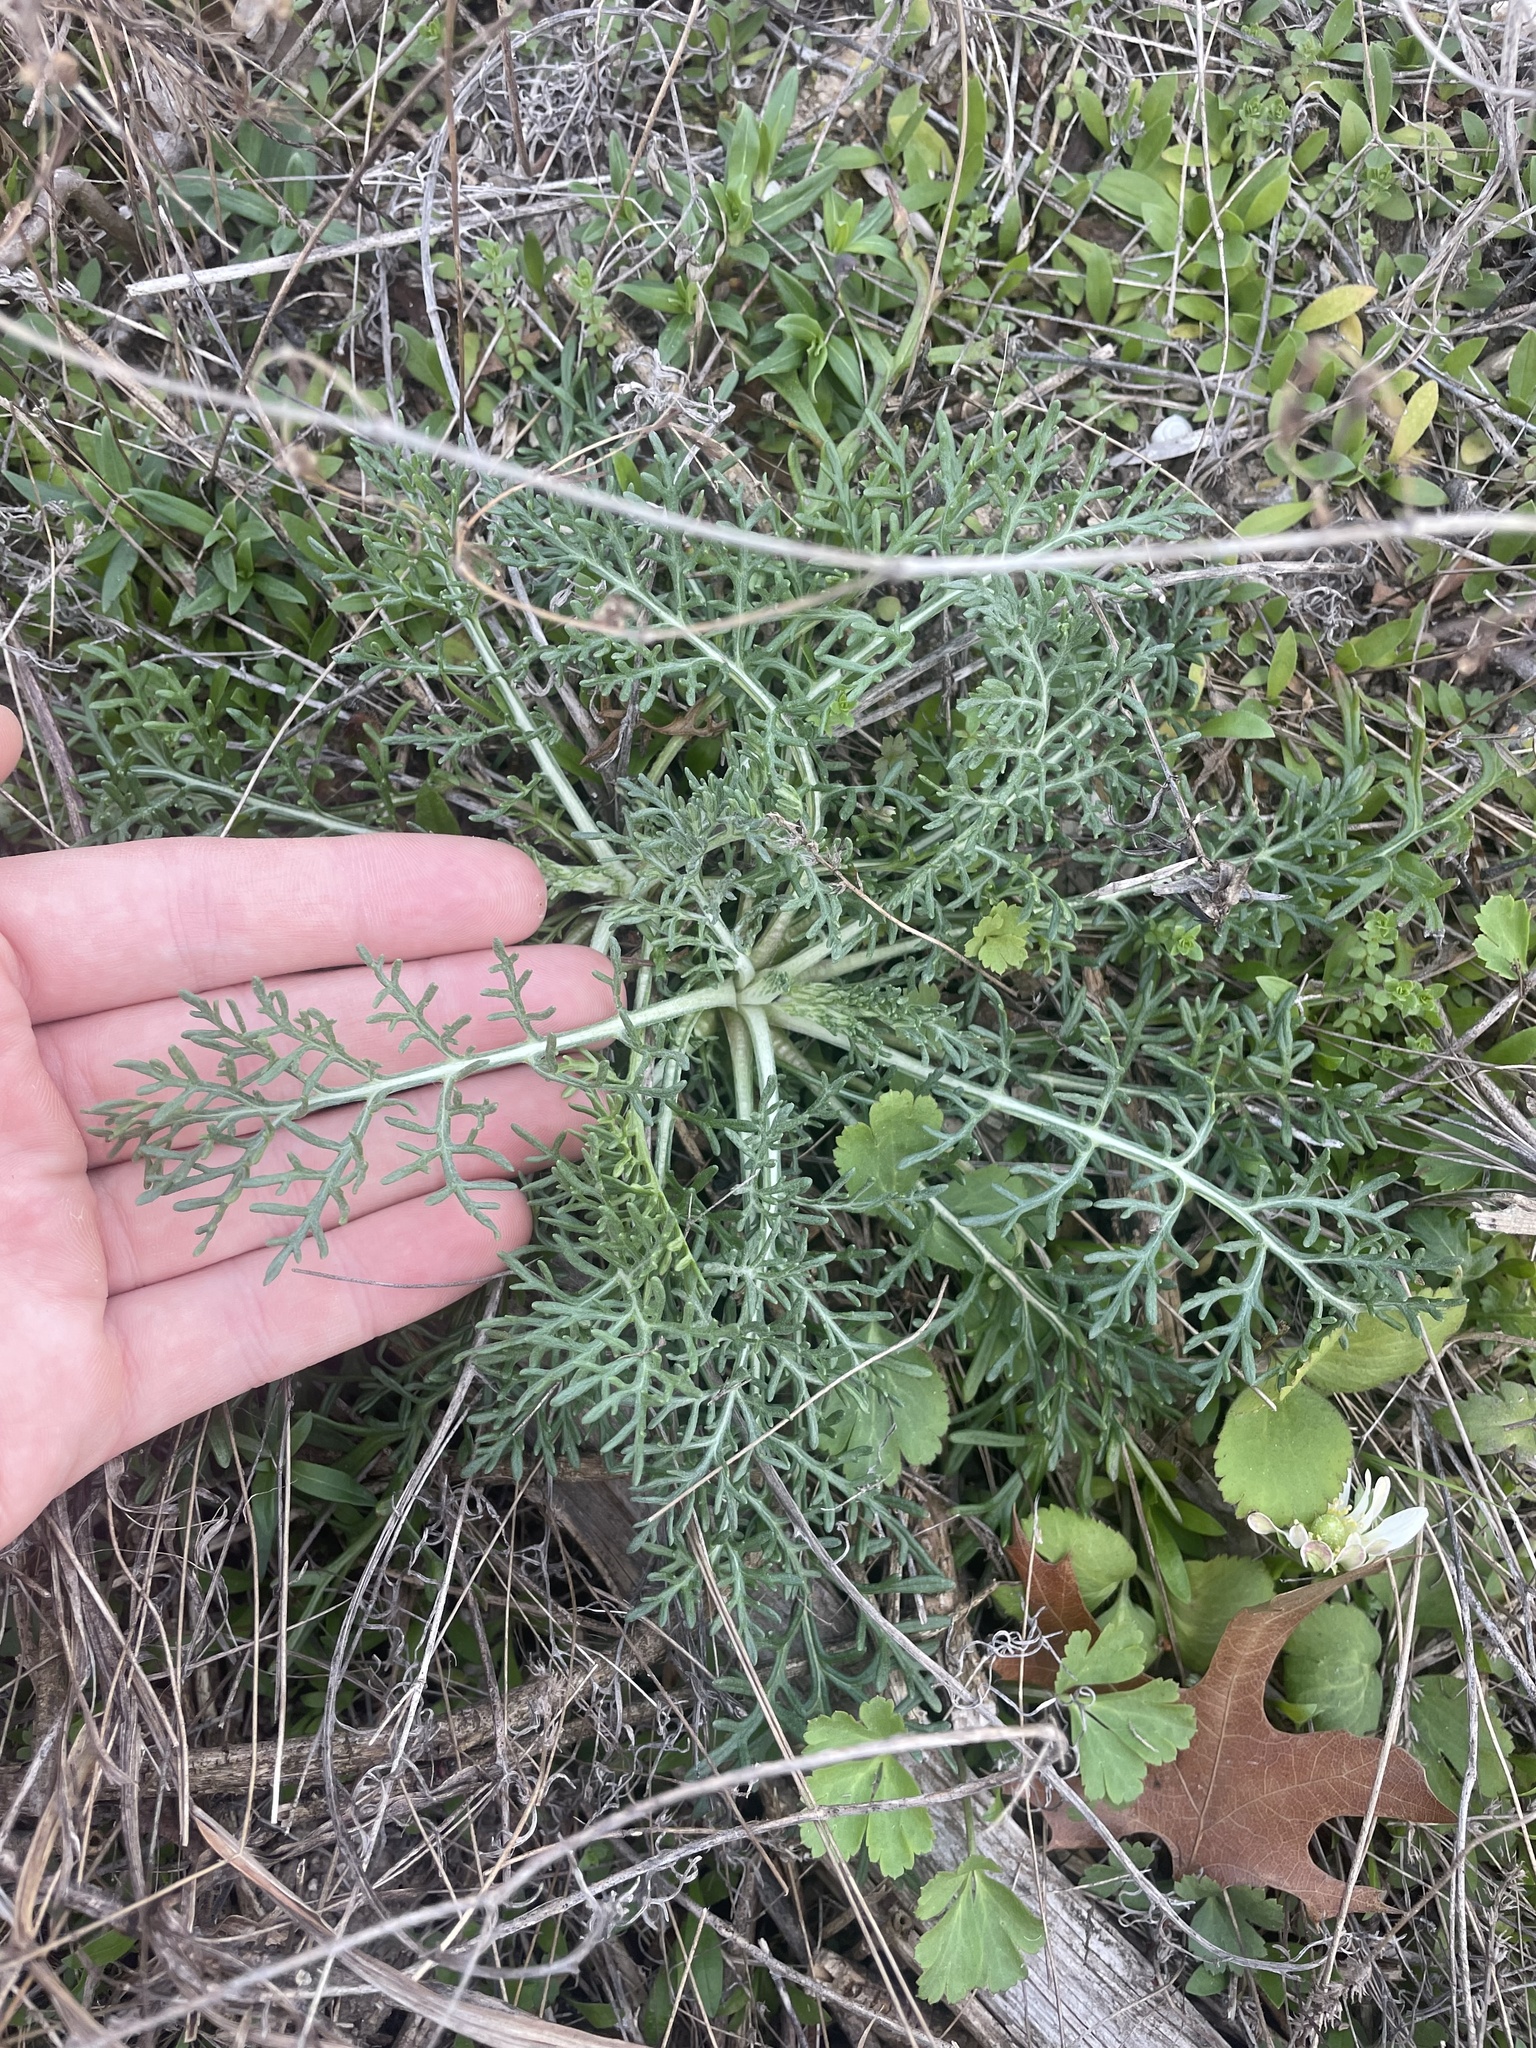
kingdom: Plantae
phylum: Tracheophyta
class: Magnoliopsida
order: Asterales
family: Asteraceae
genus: Hymenopappus
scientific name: Hymenopappus tenuifolius
